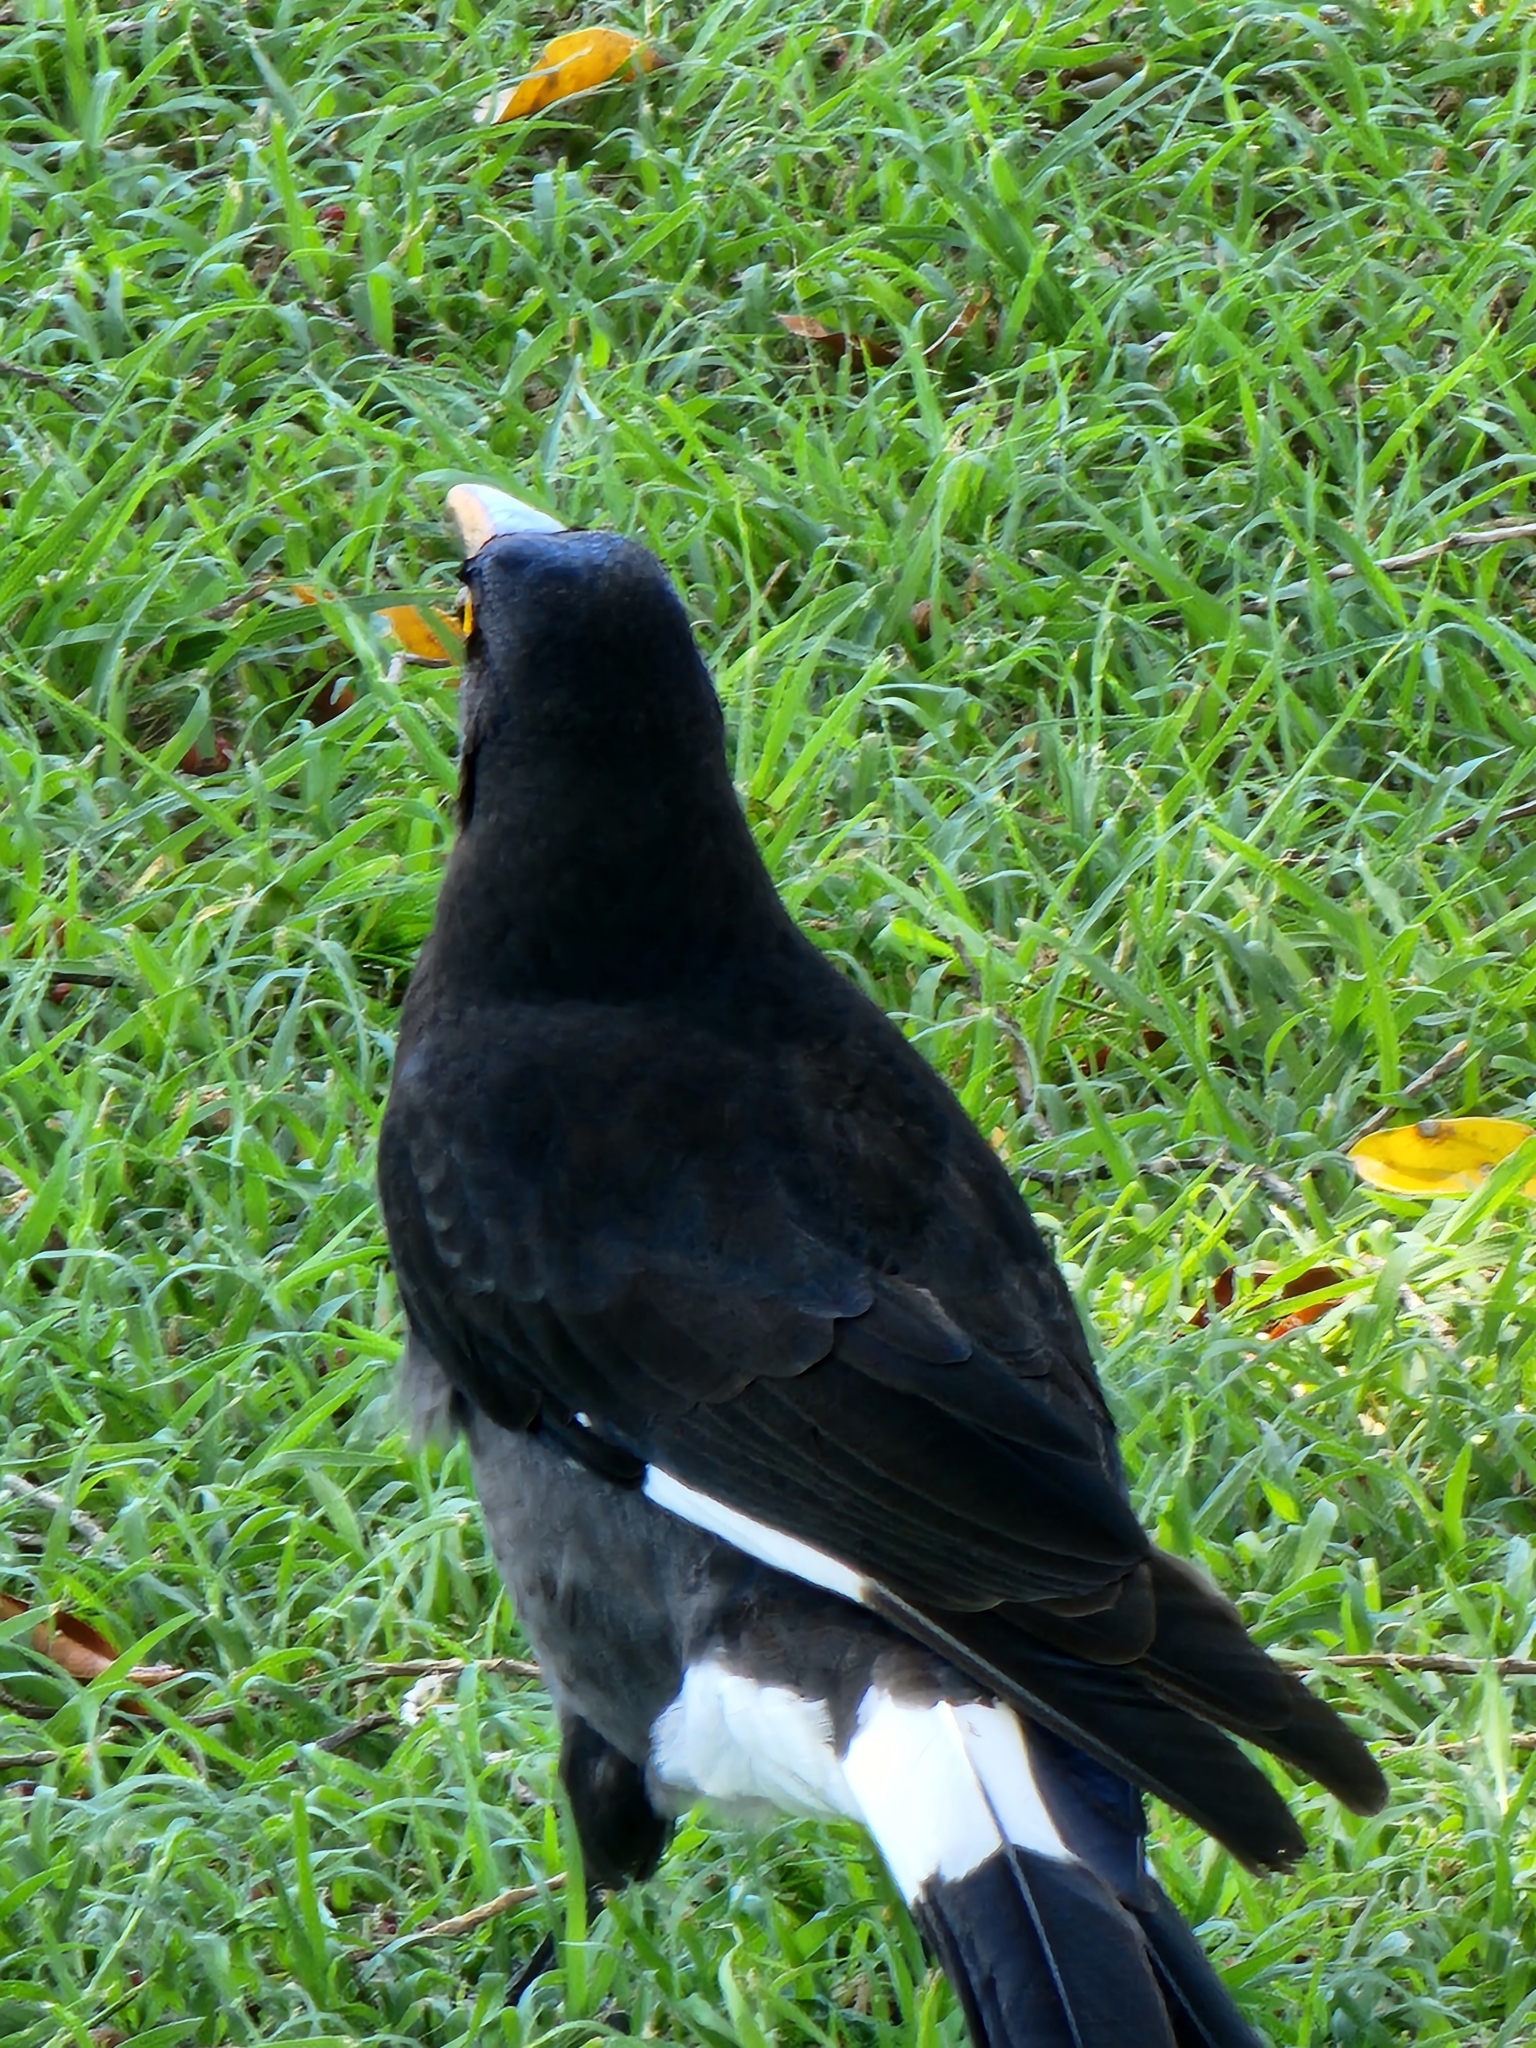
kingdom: Animalia
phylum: Chordata
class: Aves
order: Passeriformes
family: Cracticidae
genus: Strepera
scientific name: Strepera graculina
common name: Pied currawong
